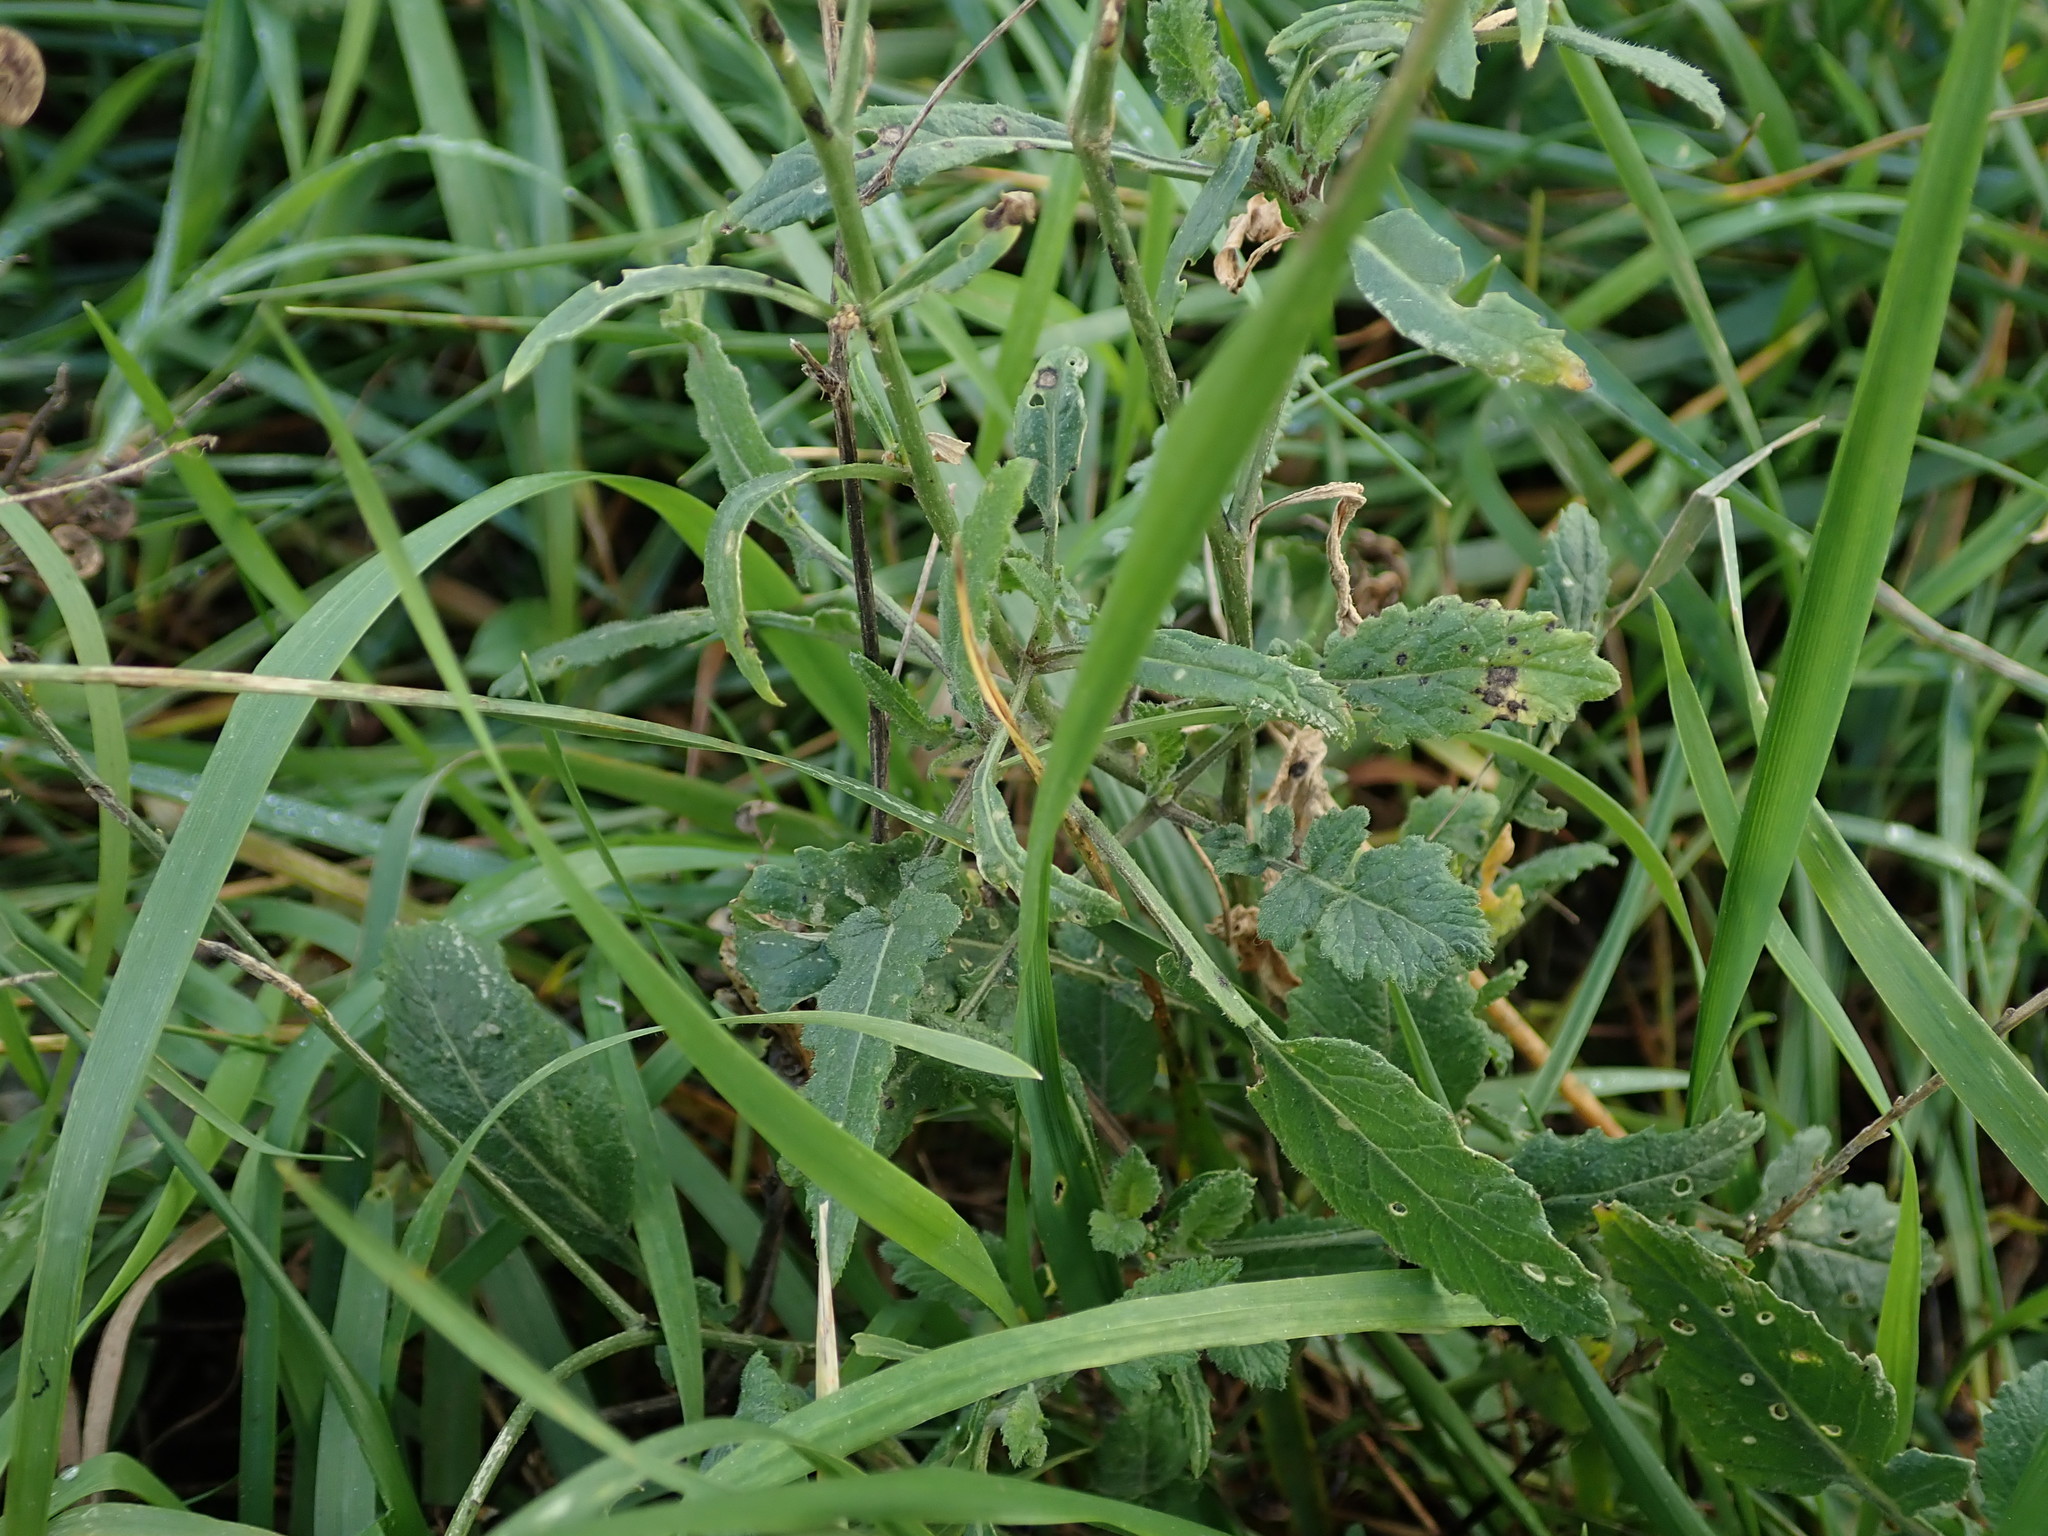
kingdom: Plantae
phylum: Tracheophyta
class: Magnoliopsida
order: Brassicales
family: Brassicaceae
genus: Hirschfeldia
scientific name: Hirschfeldia incana
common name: Hoary mustard
